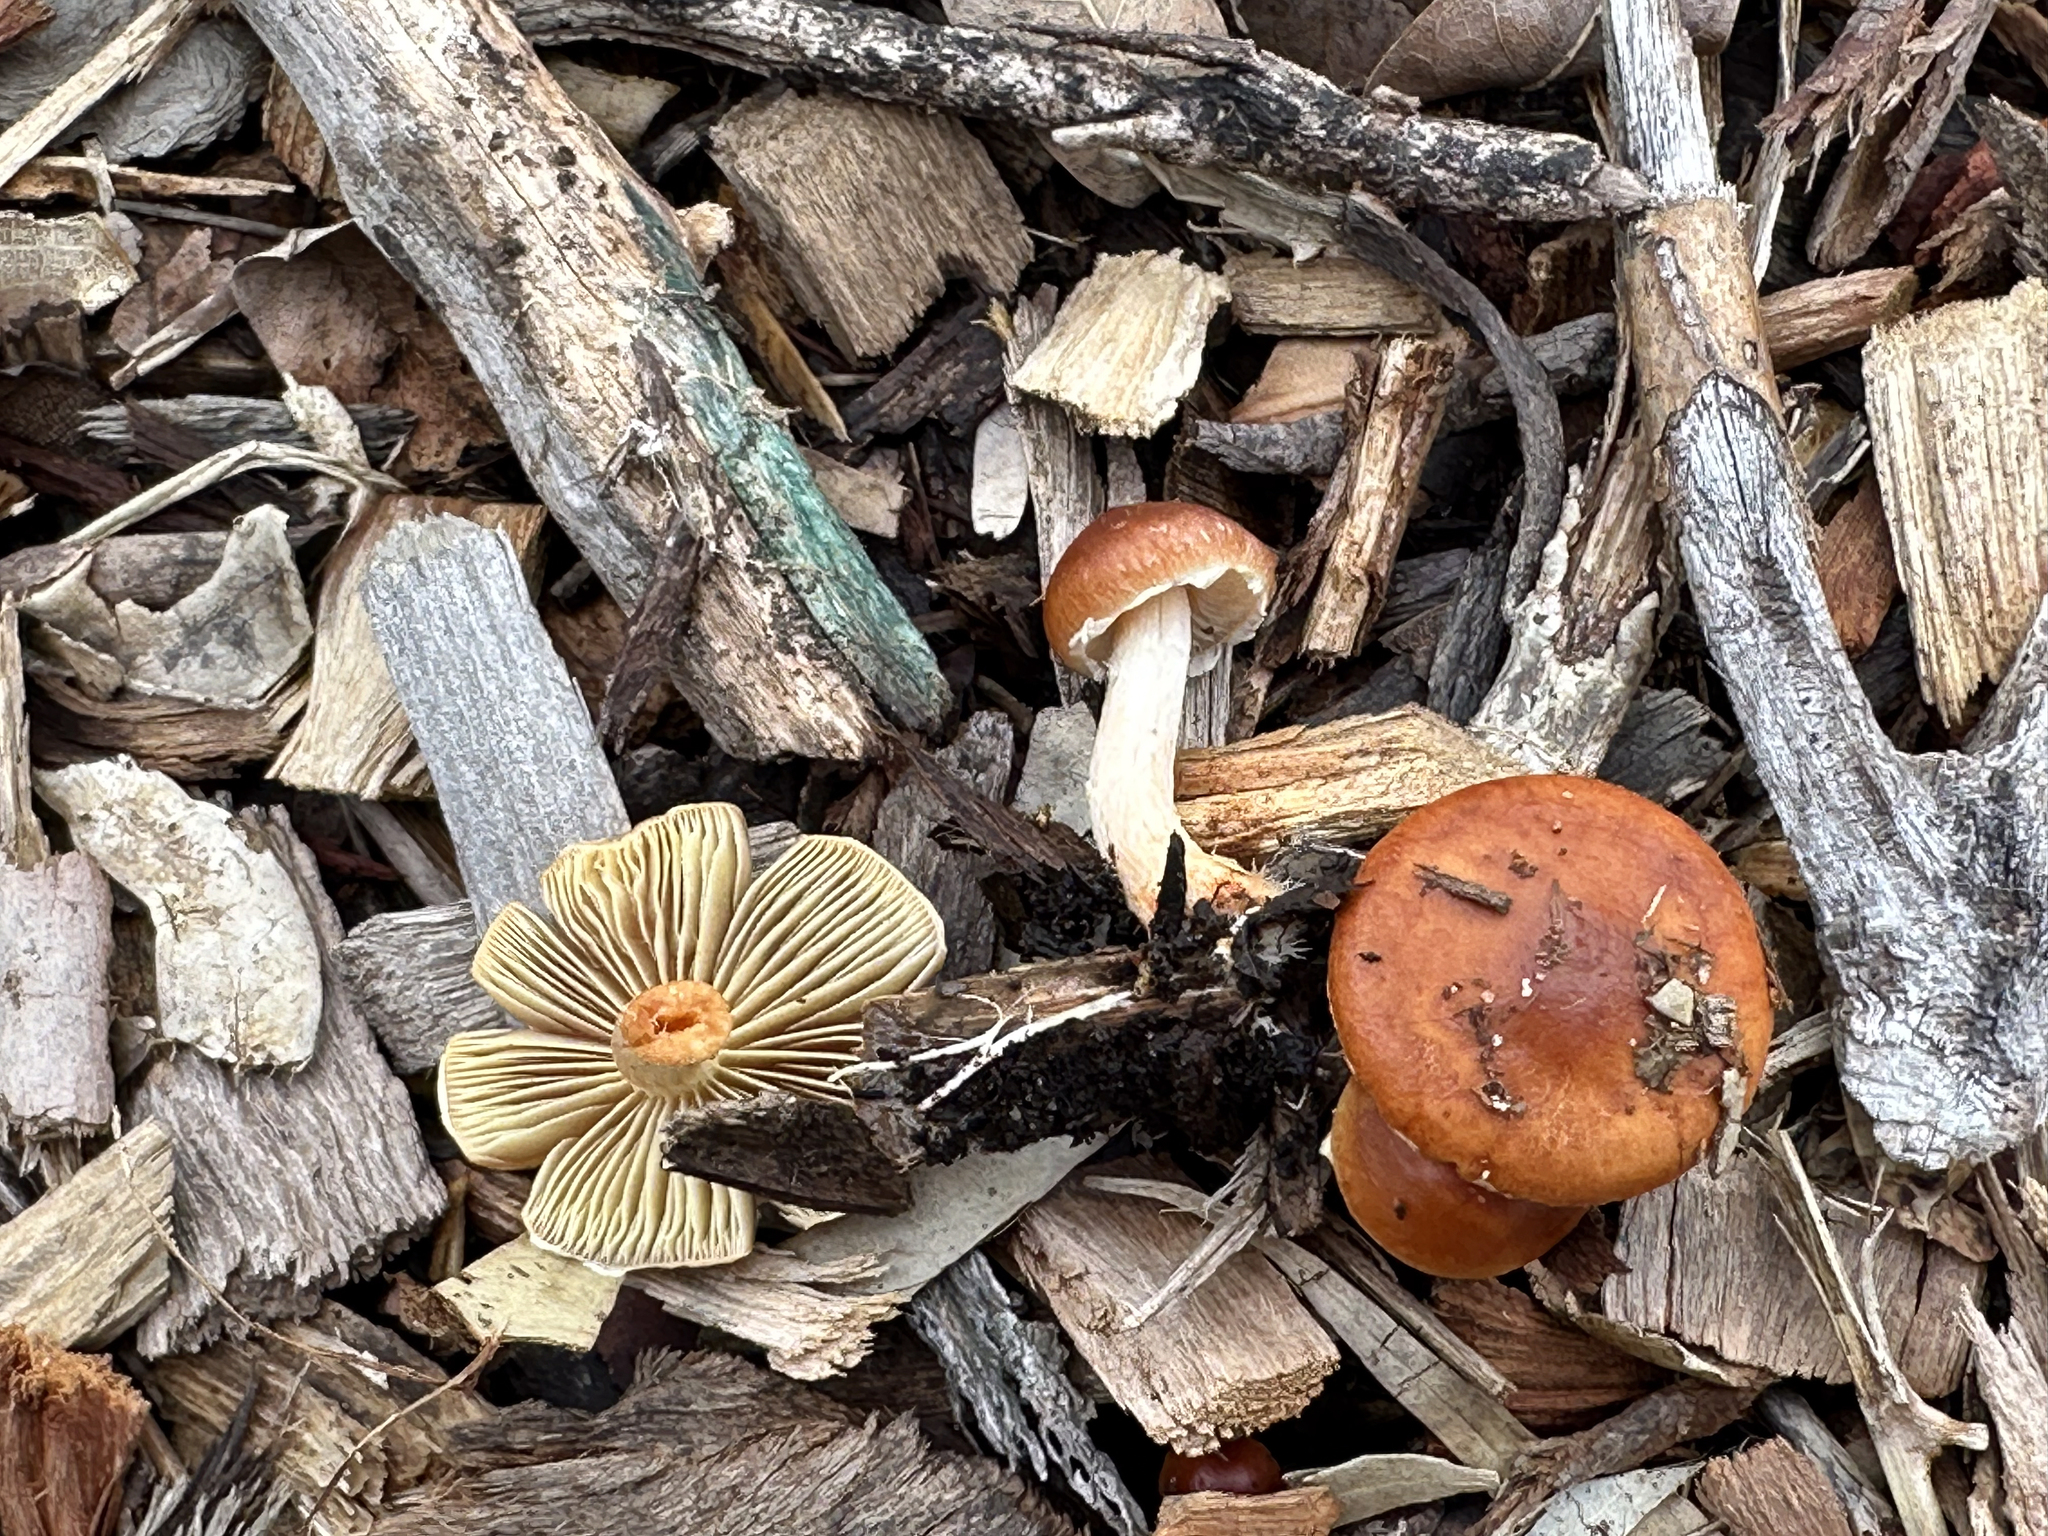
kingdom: Fungi
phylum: Basidiomycota
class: Agaricomycetes
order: Agaricales
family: Strophariaceae
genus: Leratiomyces
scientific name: Leratiomyces ceres
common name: Redlead roundhead
